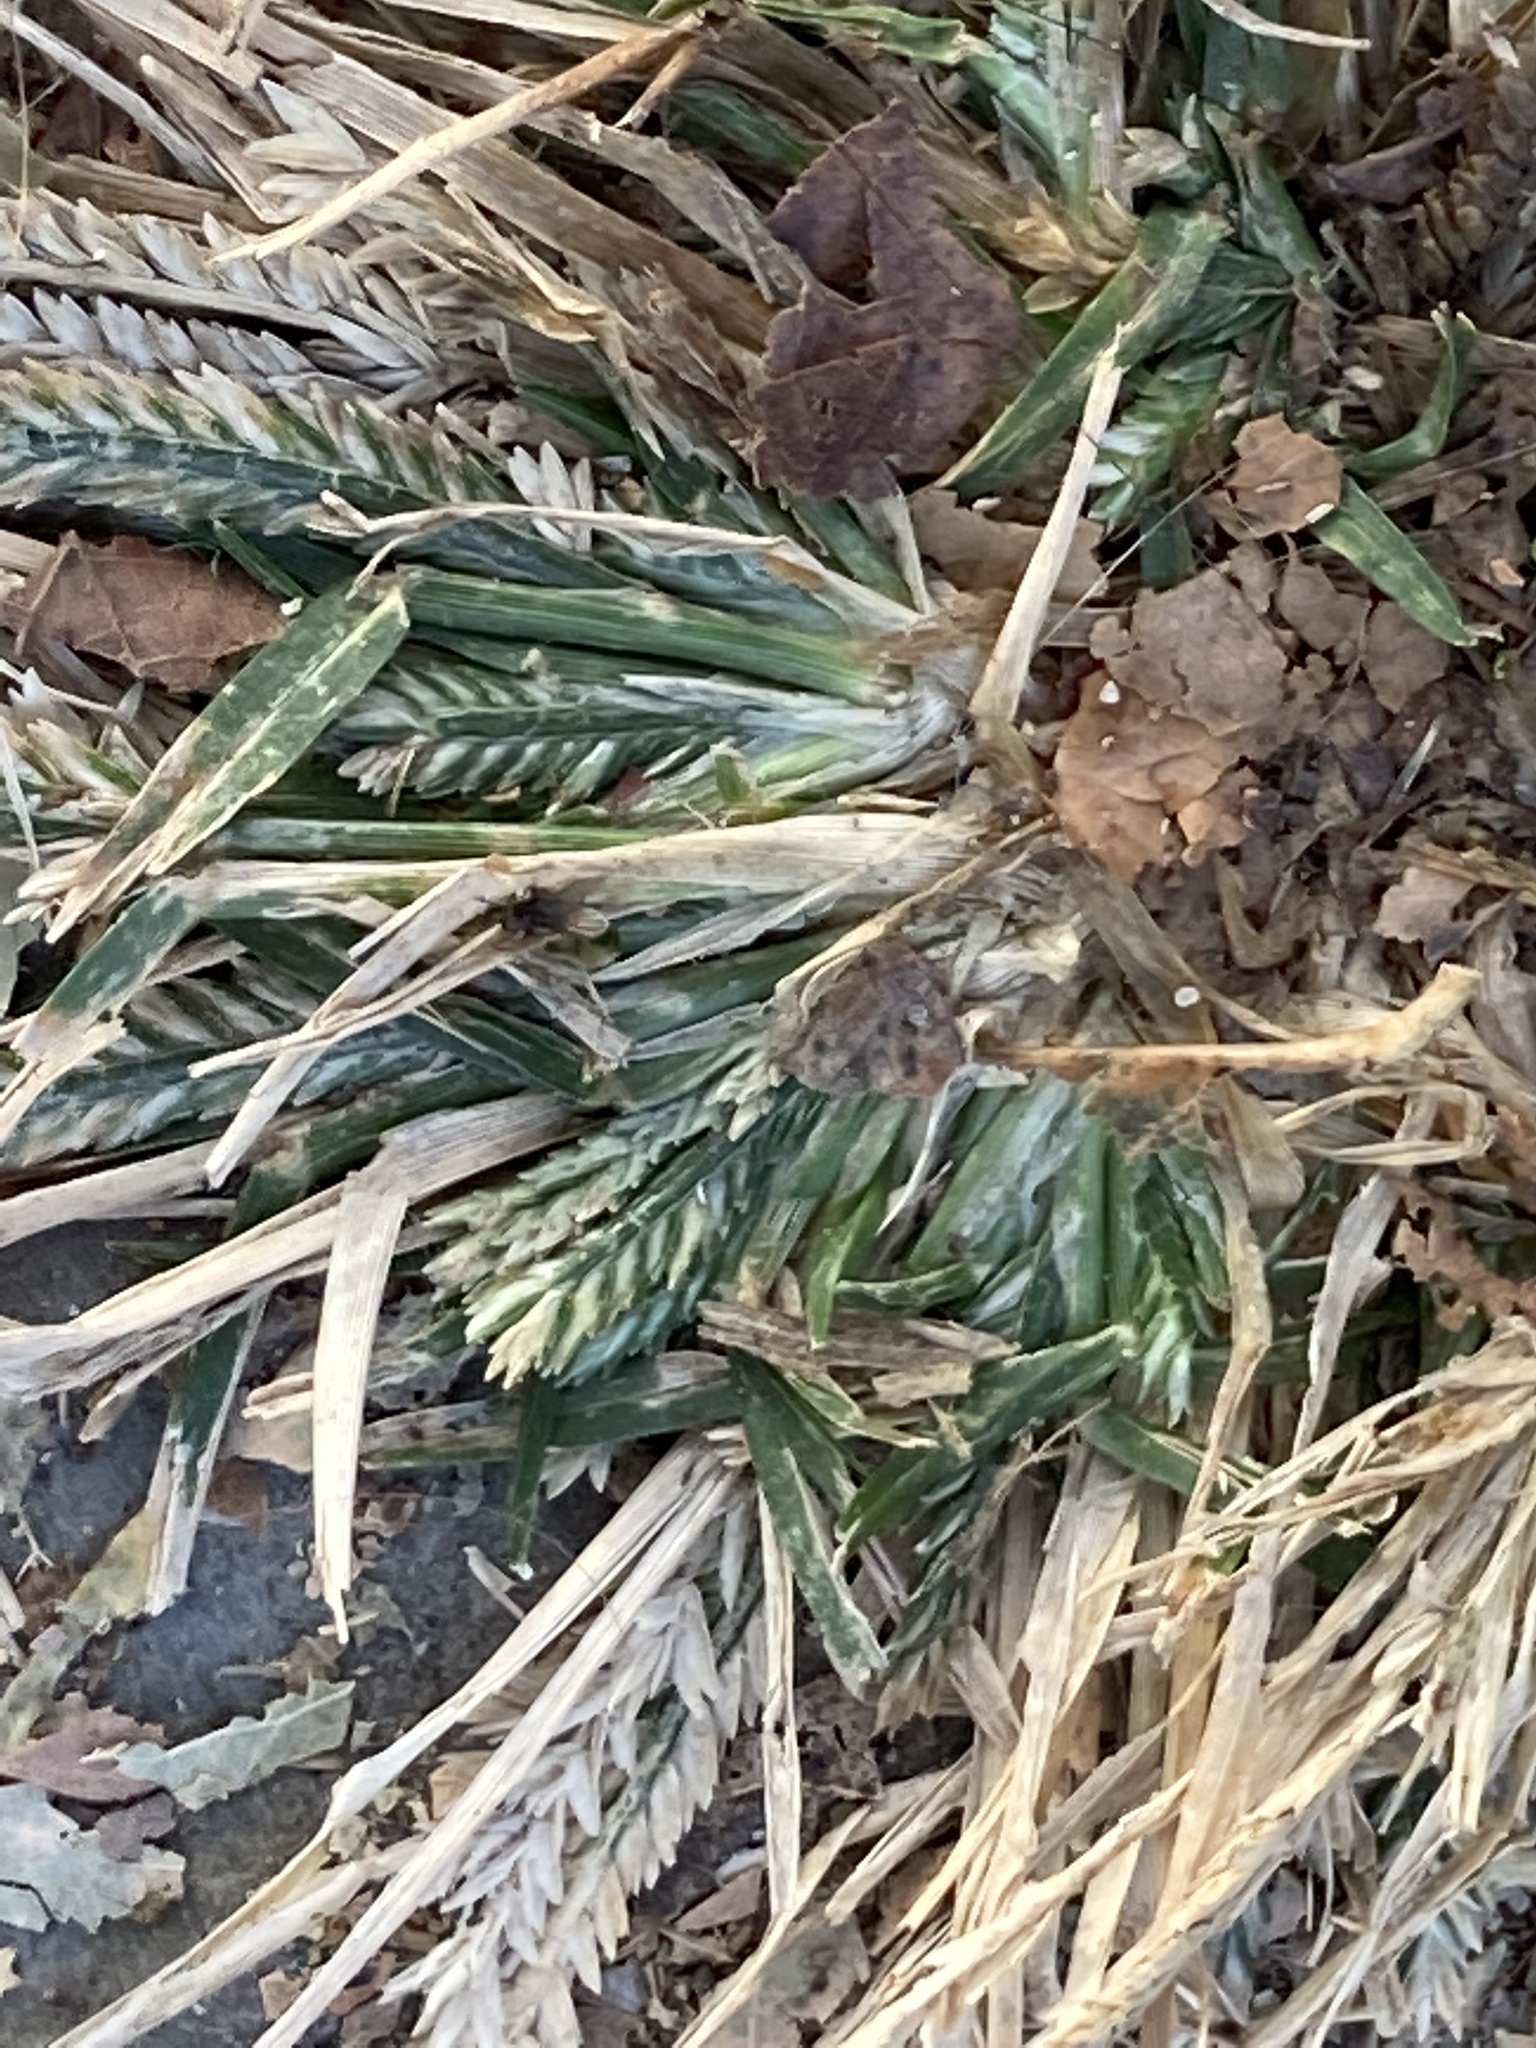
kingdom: Plantae
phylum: Tracheophyta
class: Liliopsida
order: Poales
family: Poaceae
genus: Eleusine
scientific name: Eleusine indica
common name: Yard-grass
